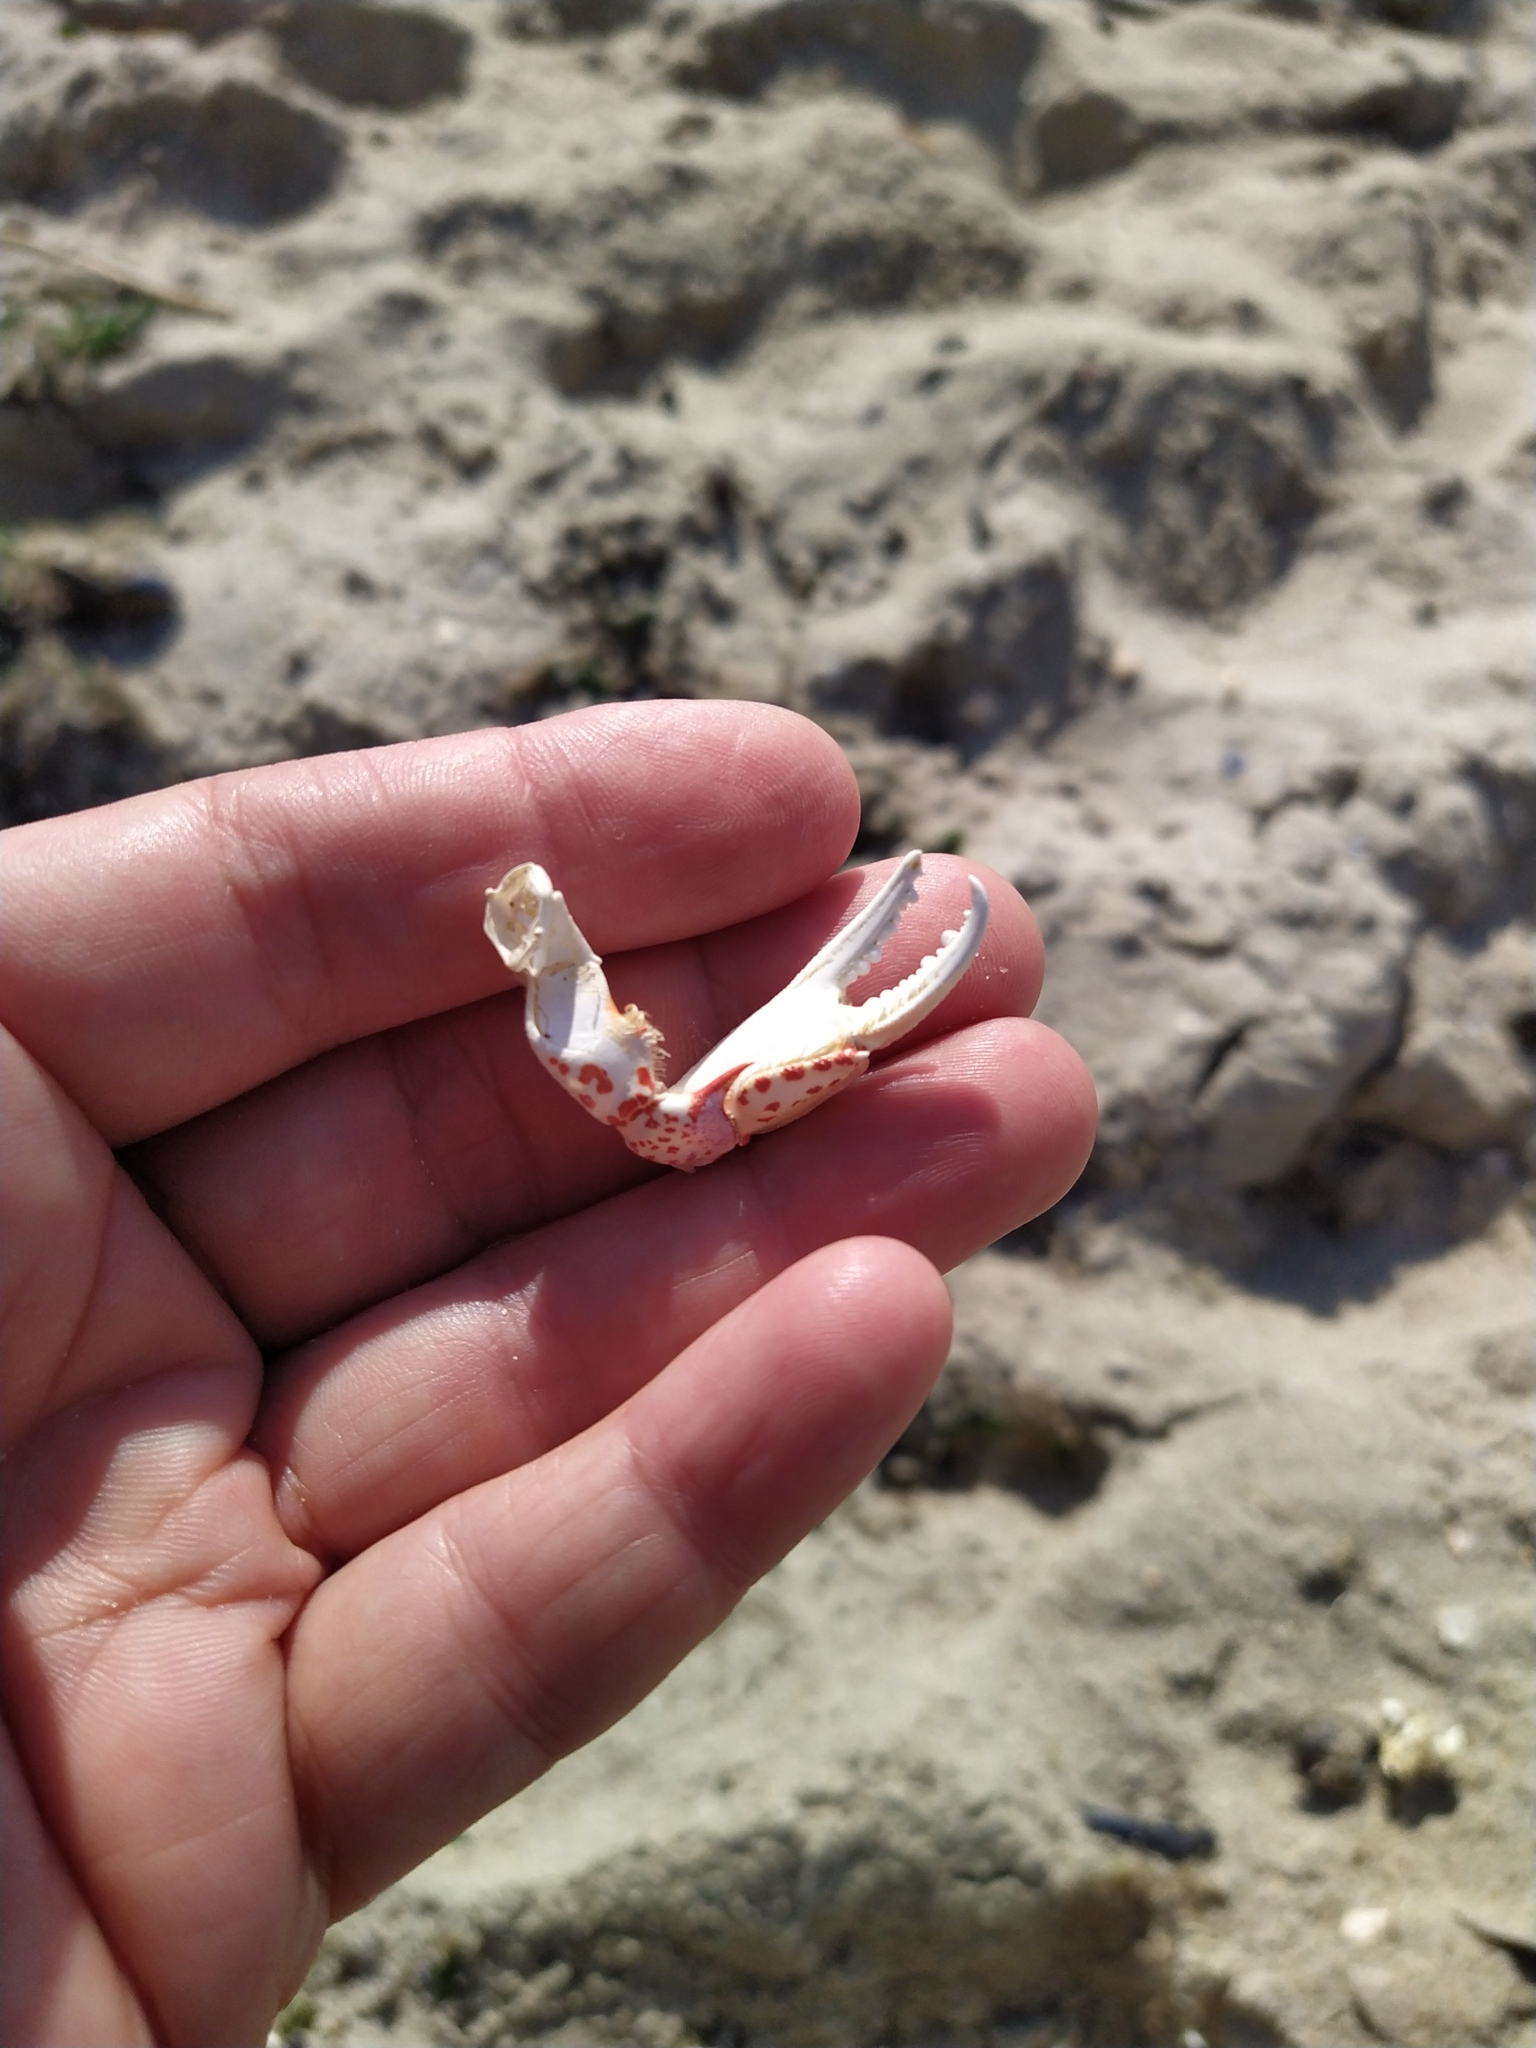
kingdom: Animalia
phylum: Arthropoda
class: Malacostraca
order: Decapoda
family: Ovalipidae
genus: Ovalipes
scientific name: Ovalipes ocellatus
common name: Lady crab
